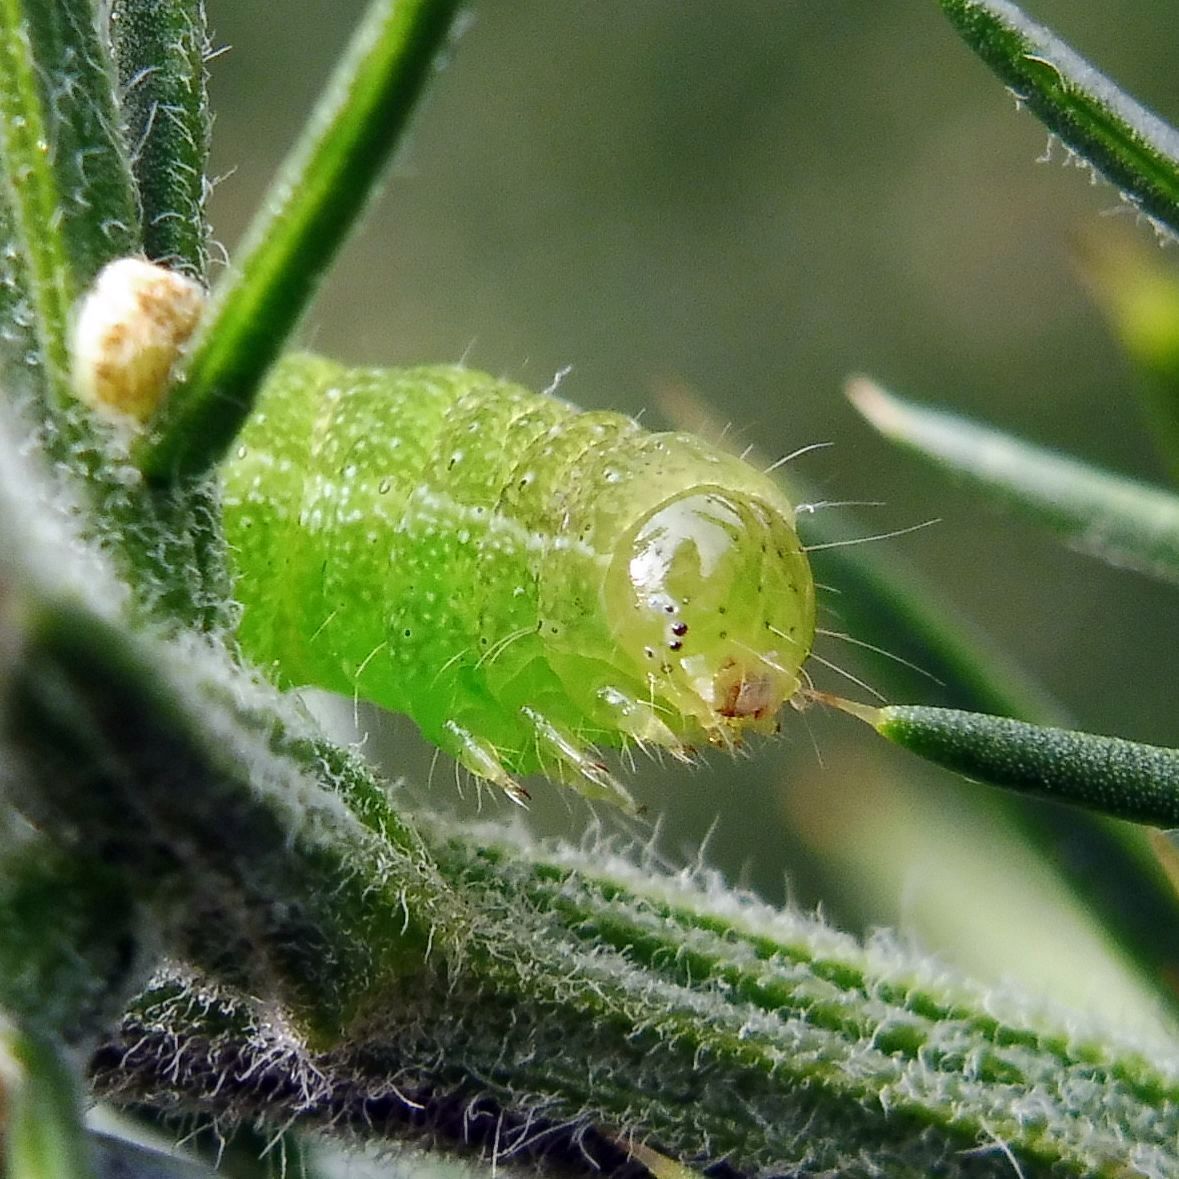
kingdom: Animalia
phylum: Arthropoda
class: Insecta
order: Lepidoptera
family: Noctuidae
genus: Phlogophora
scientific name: Phlogophora meticulosa
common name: Angle shades
